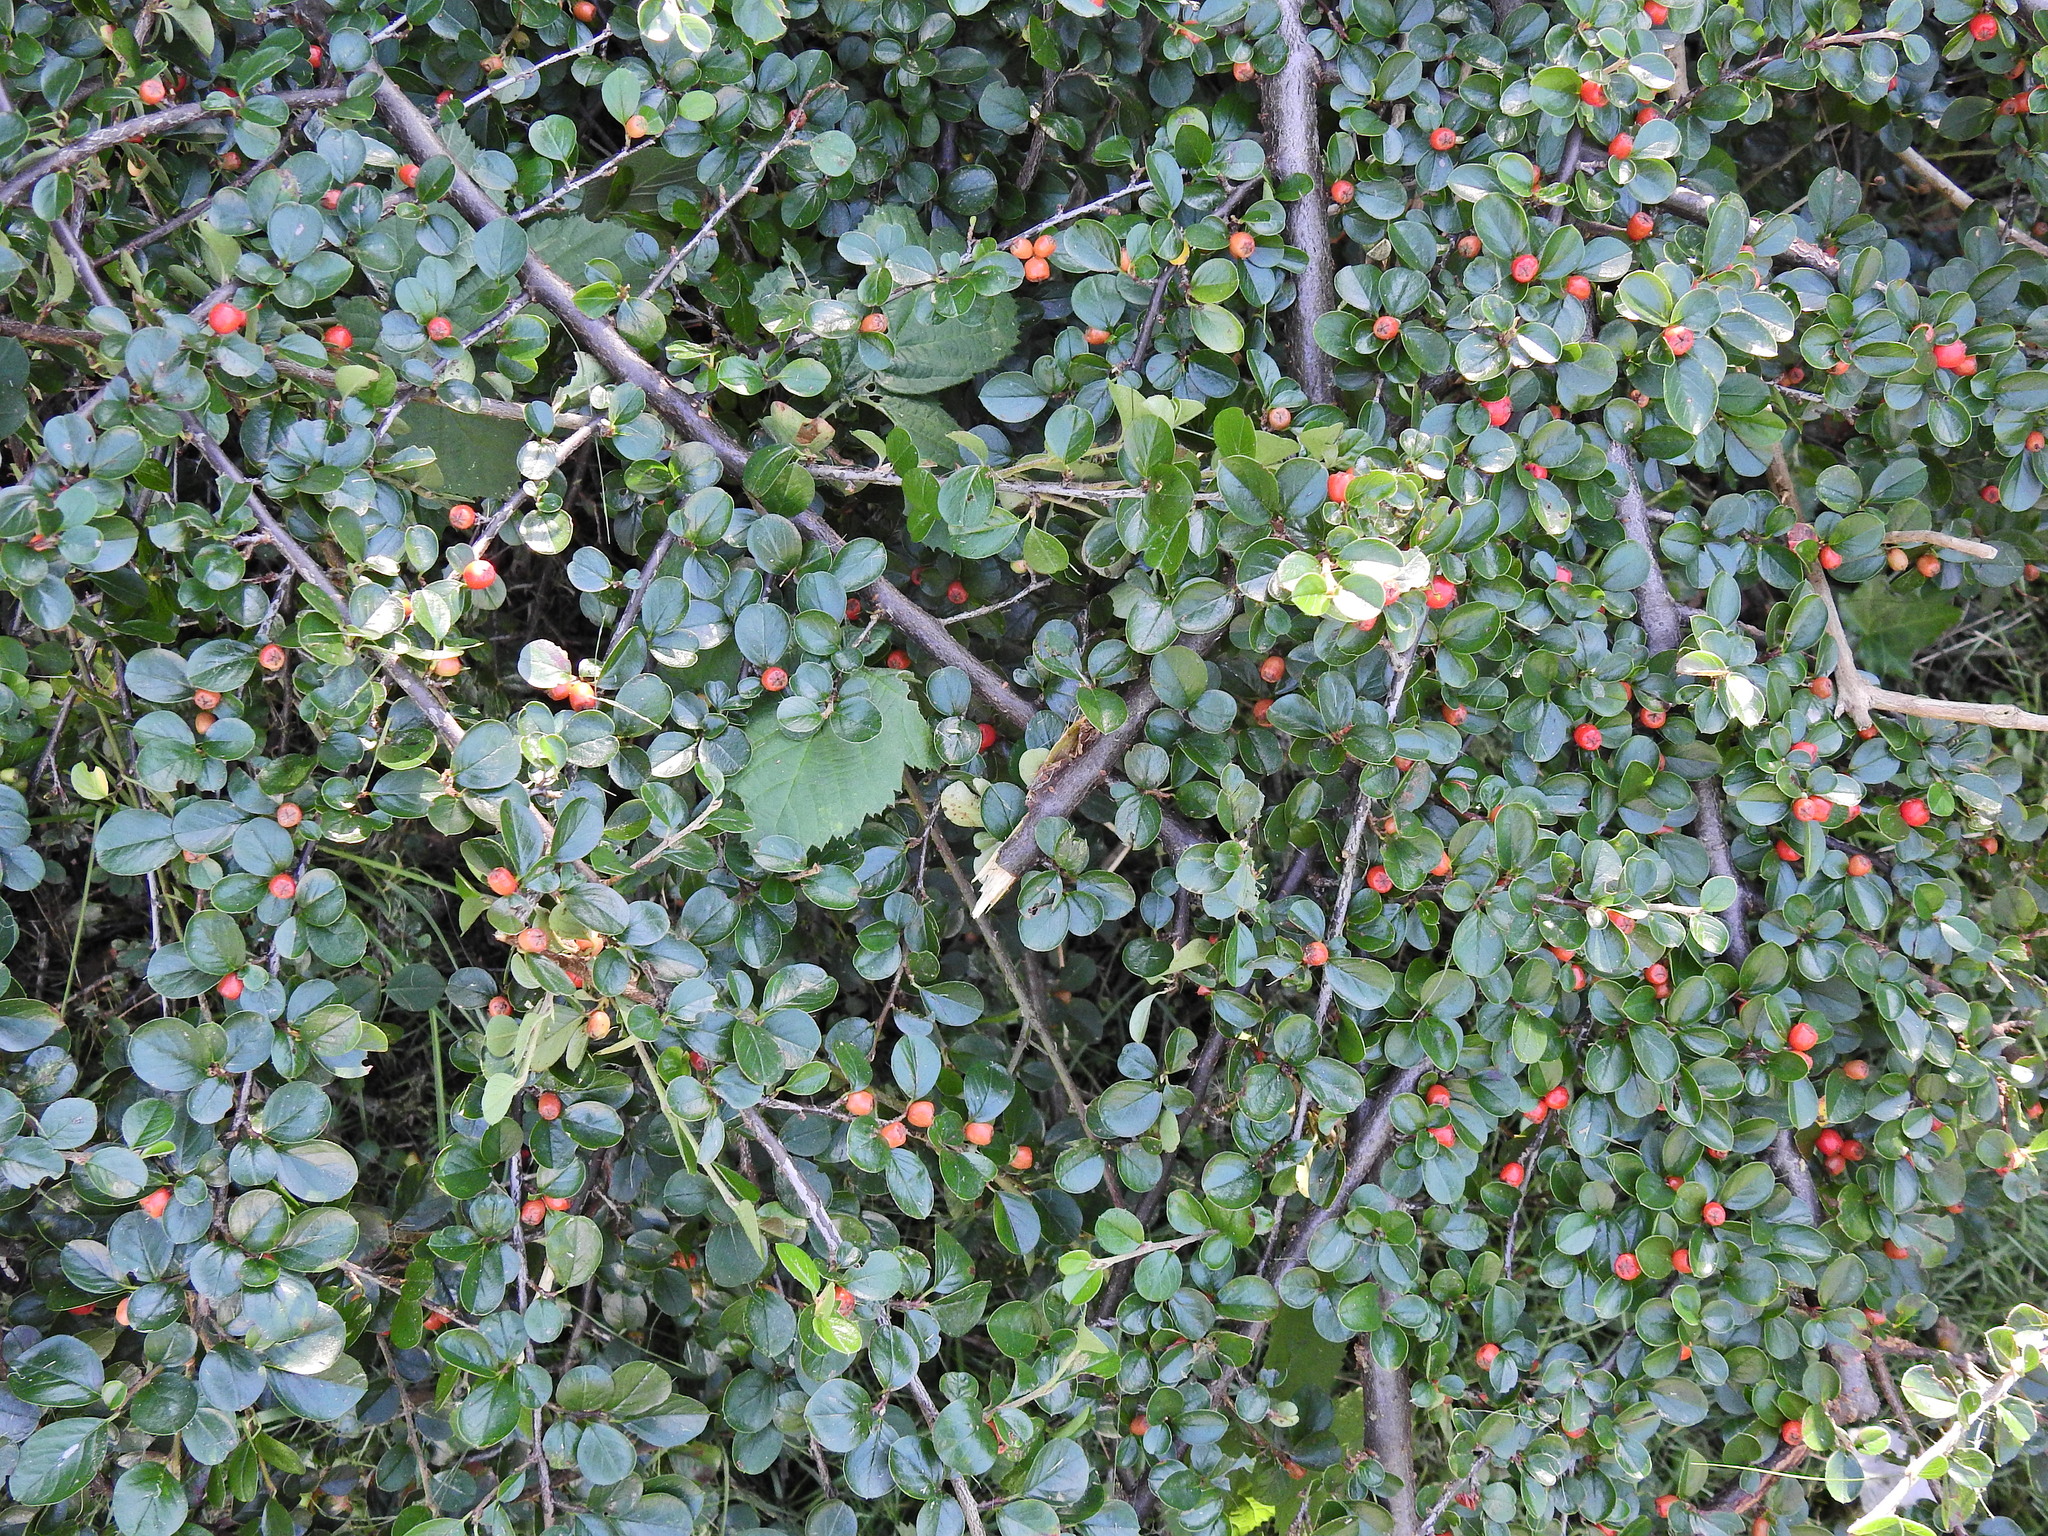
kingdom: Plantae
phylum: Tracheophyta
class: Magnoliopsida
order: Rosales
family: Rosaceae
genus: Cotoneaster
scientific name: Cotoneaster hjelmqvistii
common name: Hjelmqvist's cotoneaster
